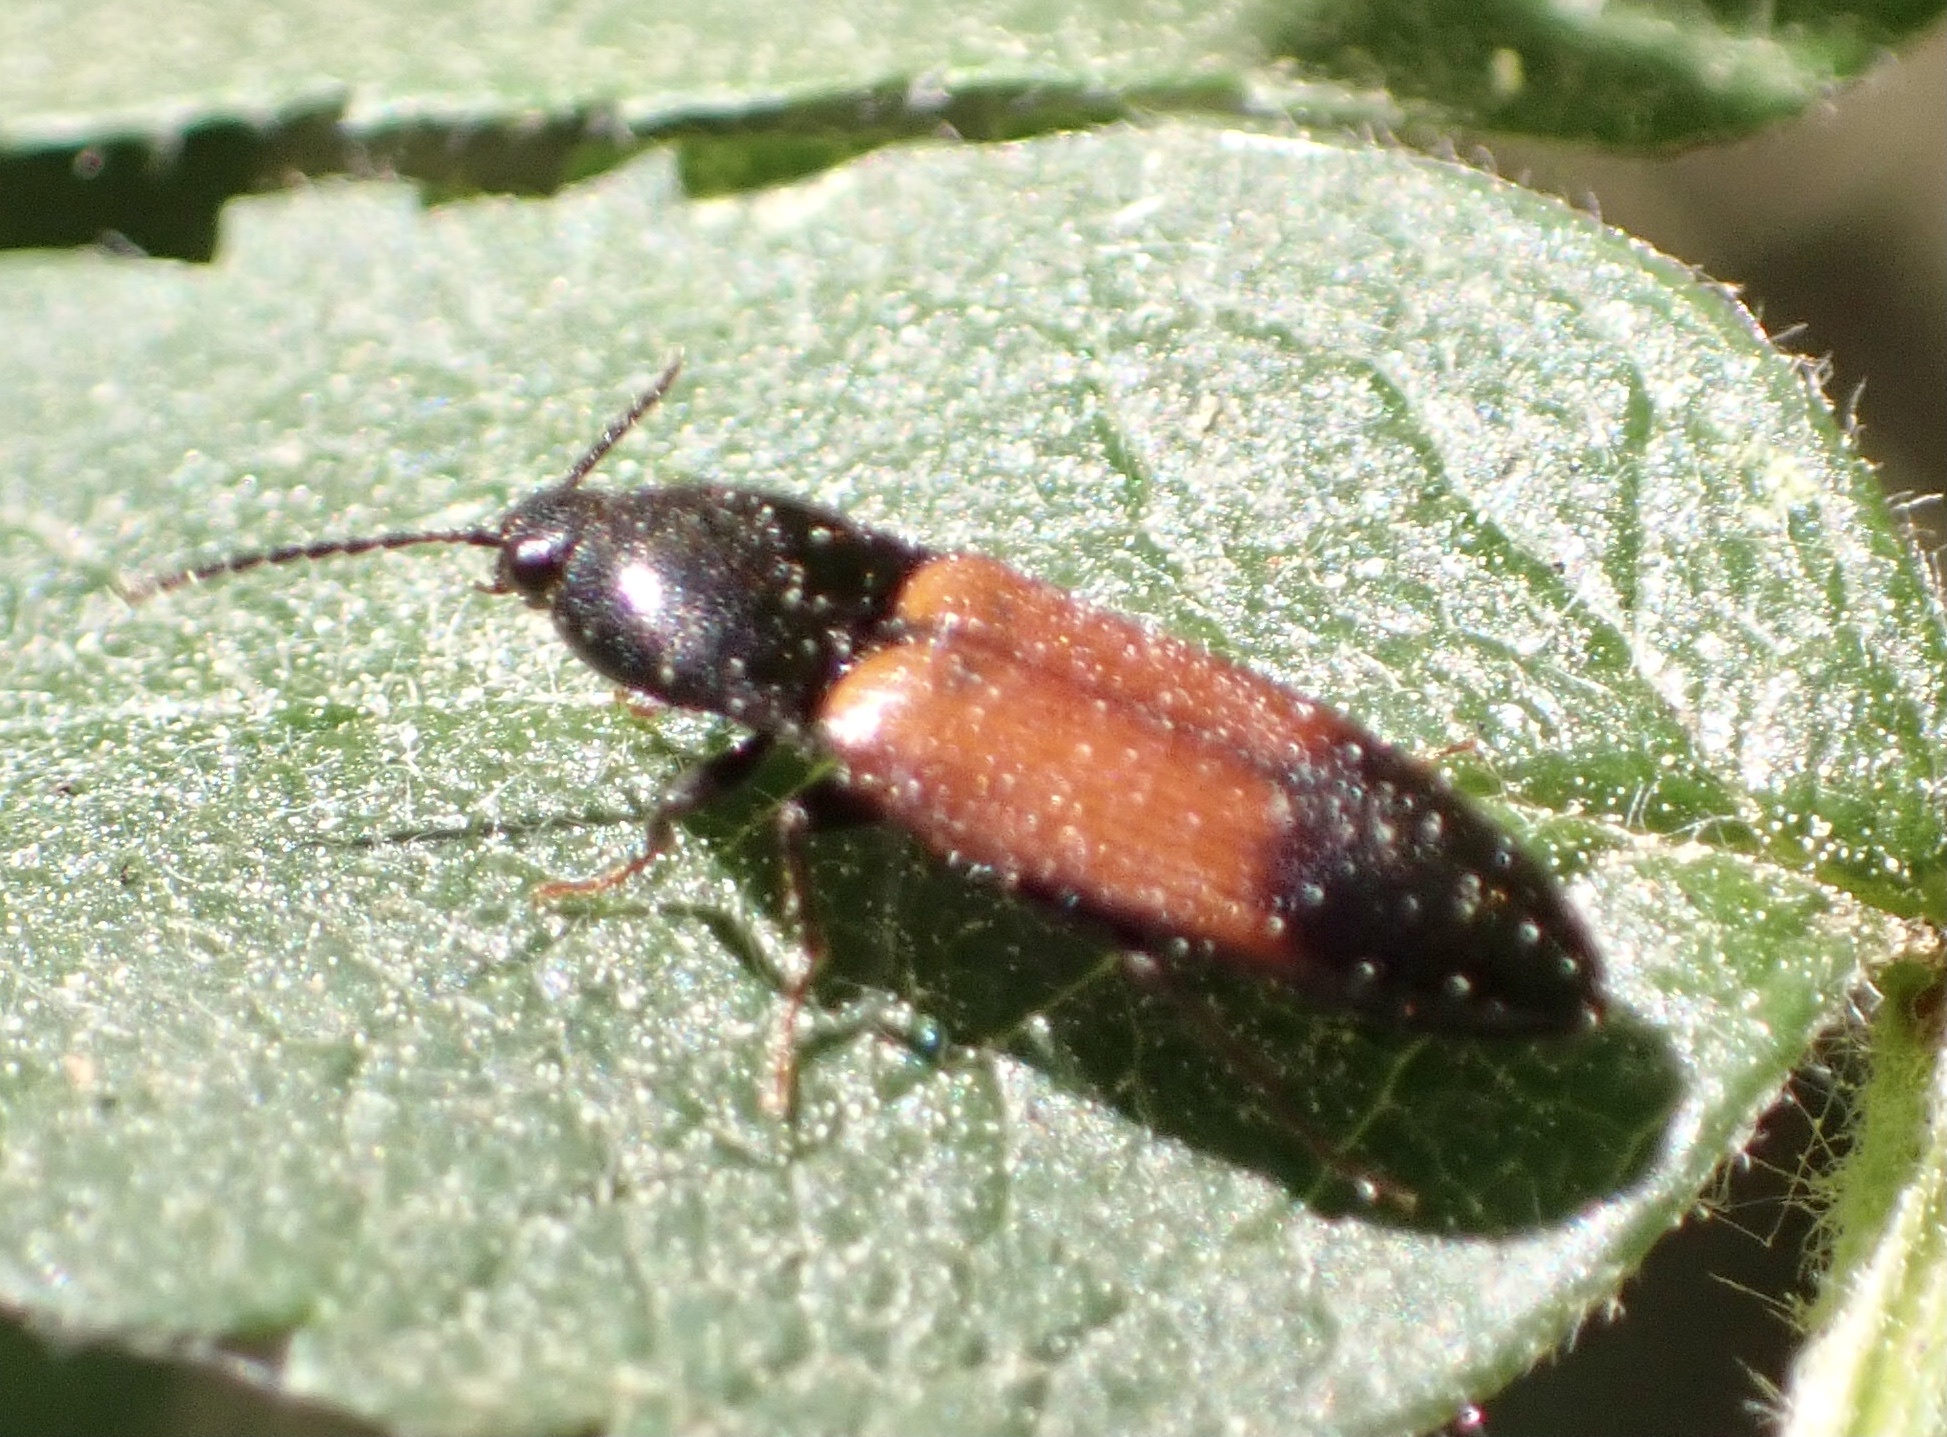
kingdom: Animalia
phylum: Arthropoda
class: Insecta
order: Coleoptera
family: Elateridae
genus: Ampedus
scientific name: Ampedus balteatus
